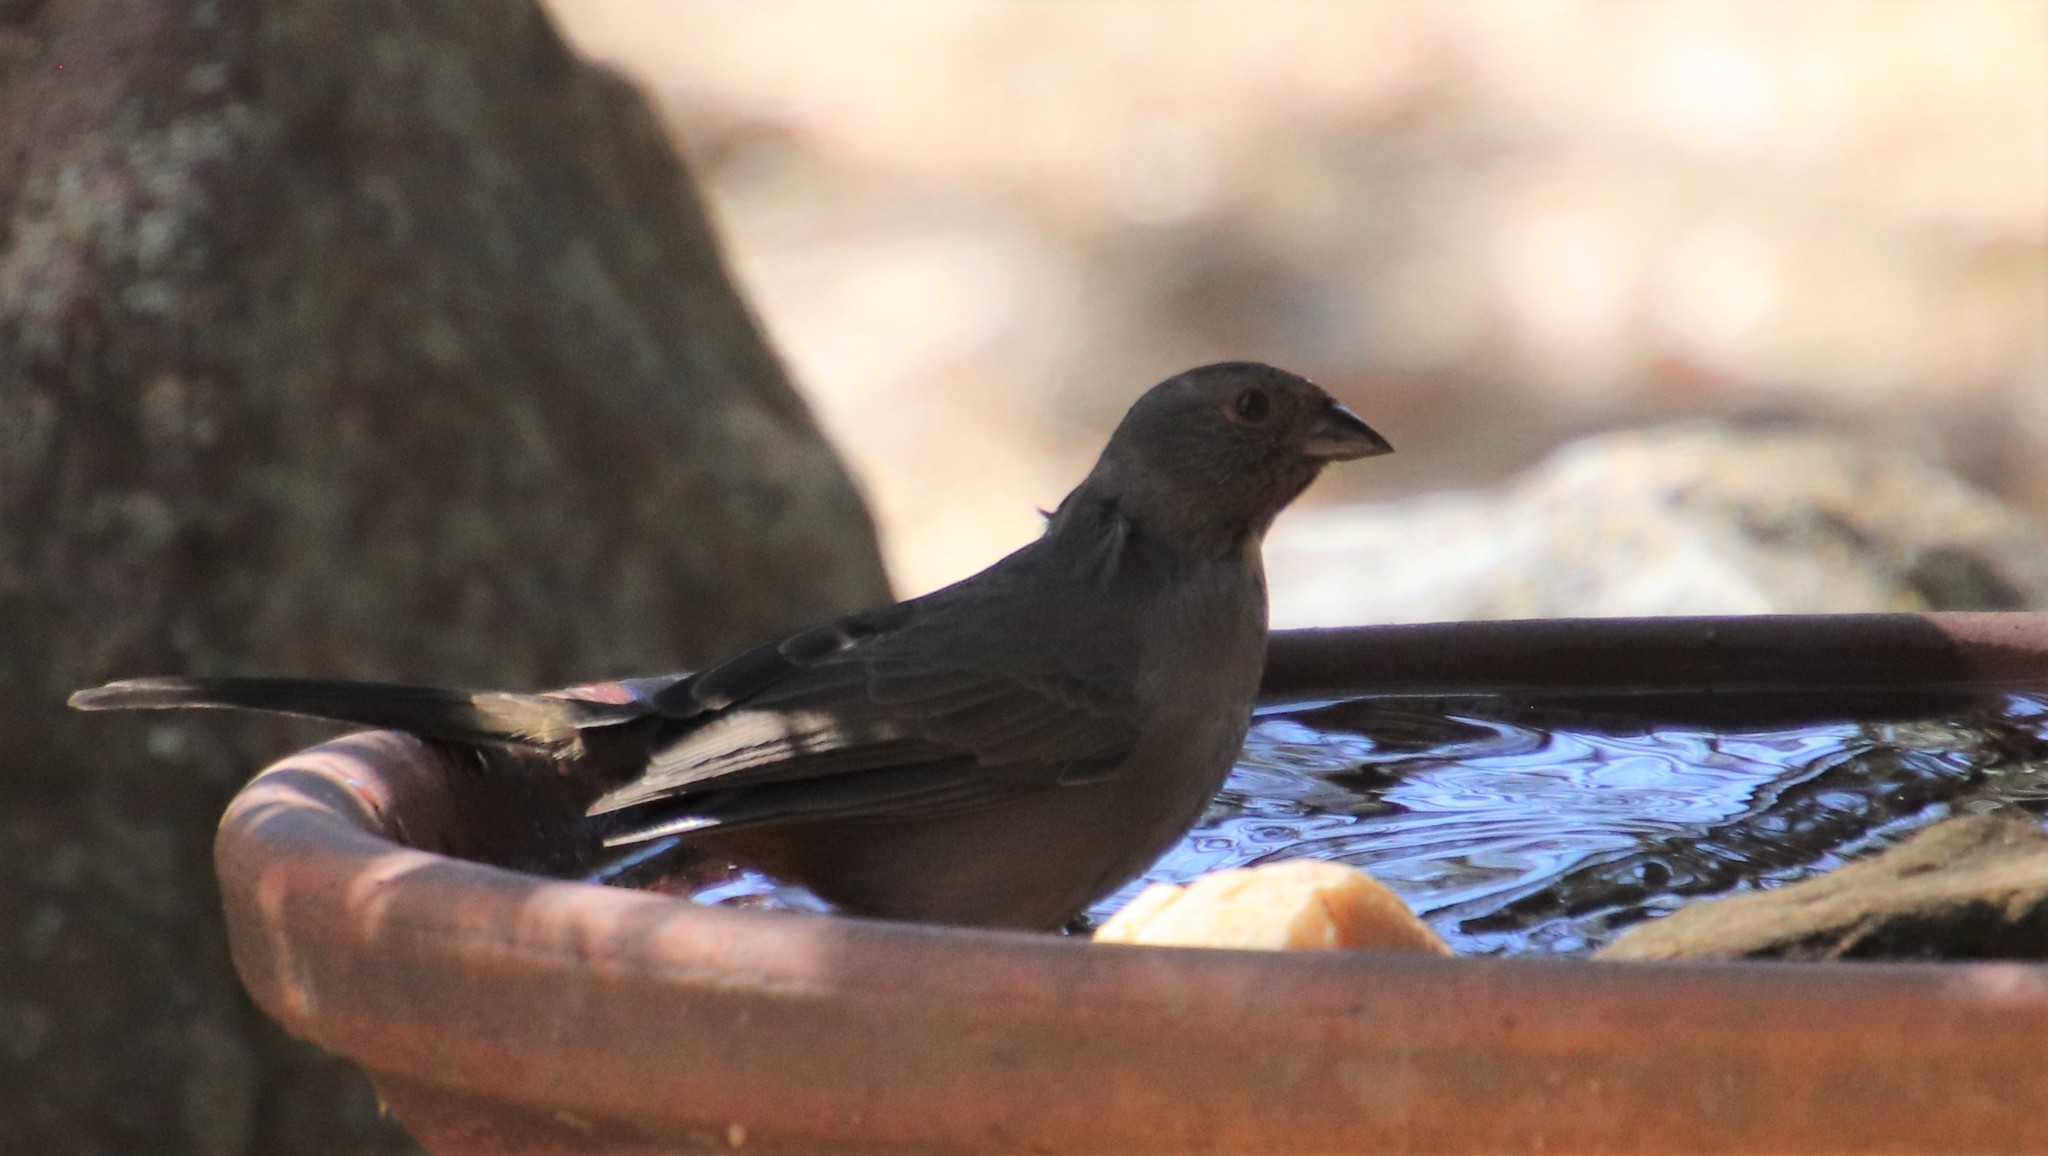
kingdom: Animalia
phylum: Chordata
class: Aves
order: Passeriformes
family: Passerellidae
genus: Melozone
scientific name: Melozone crissalis
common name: California towhee
